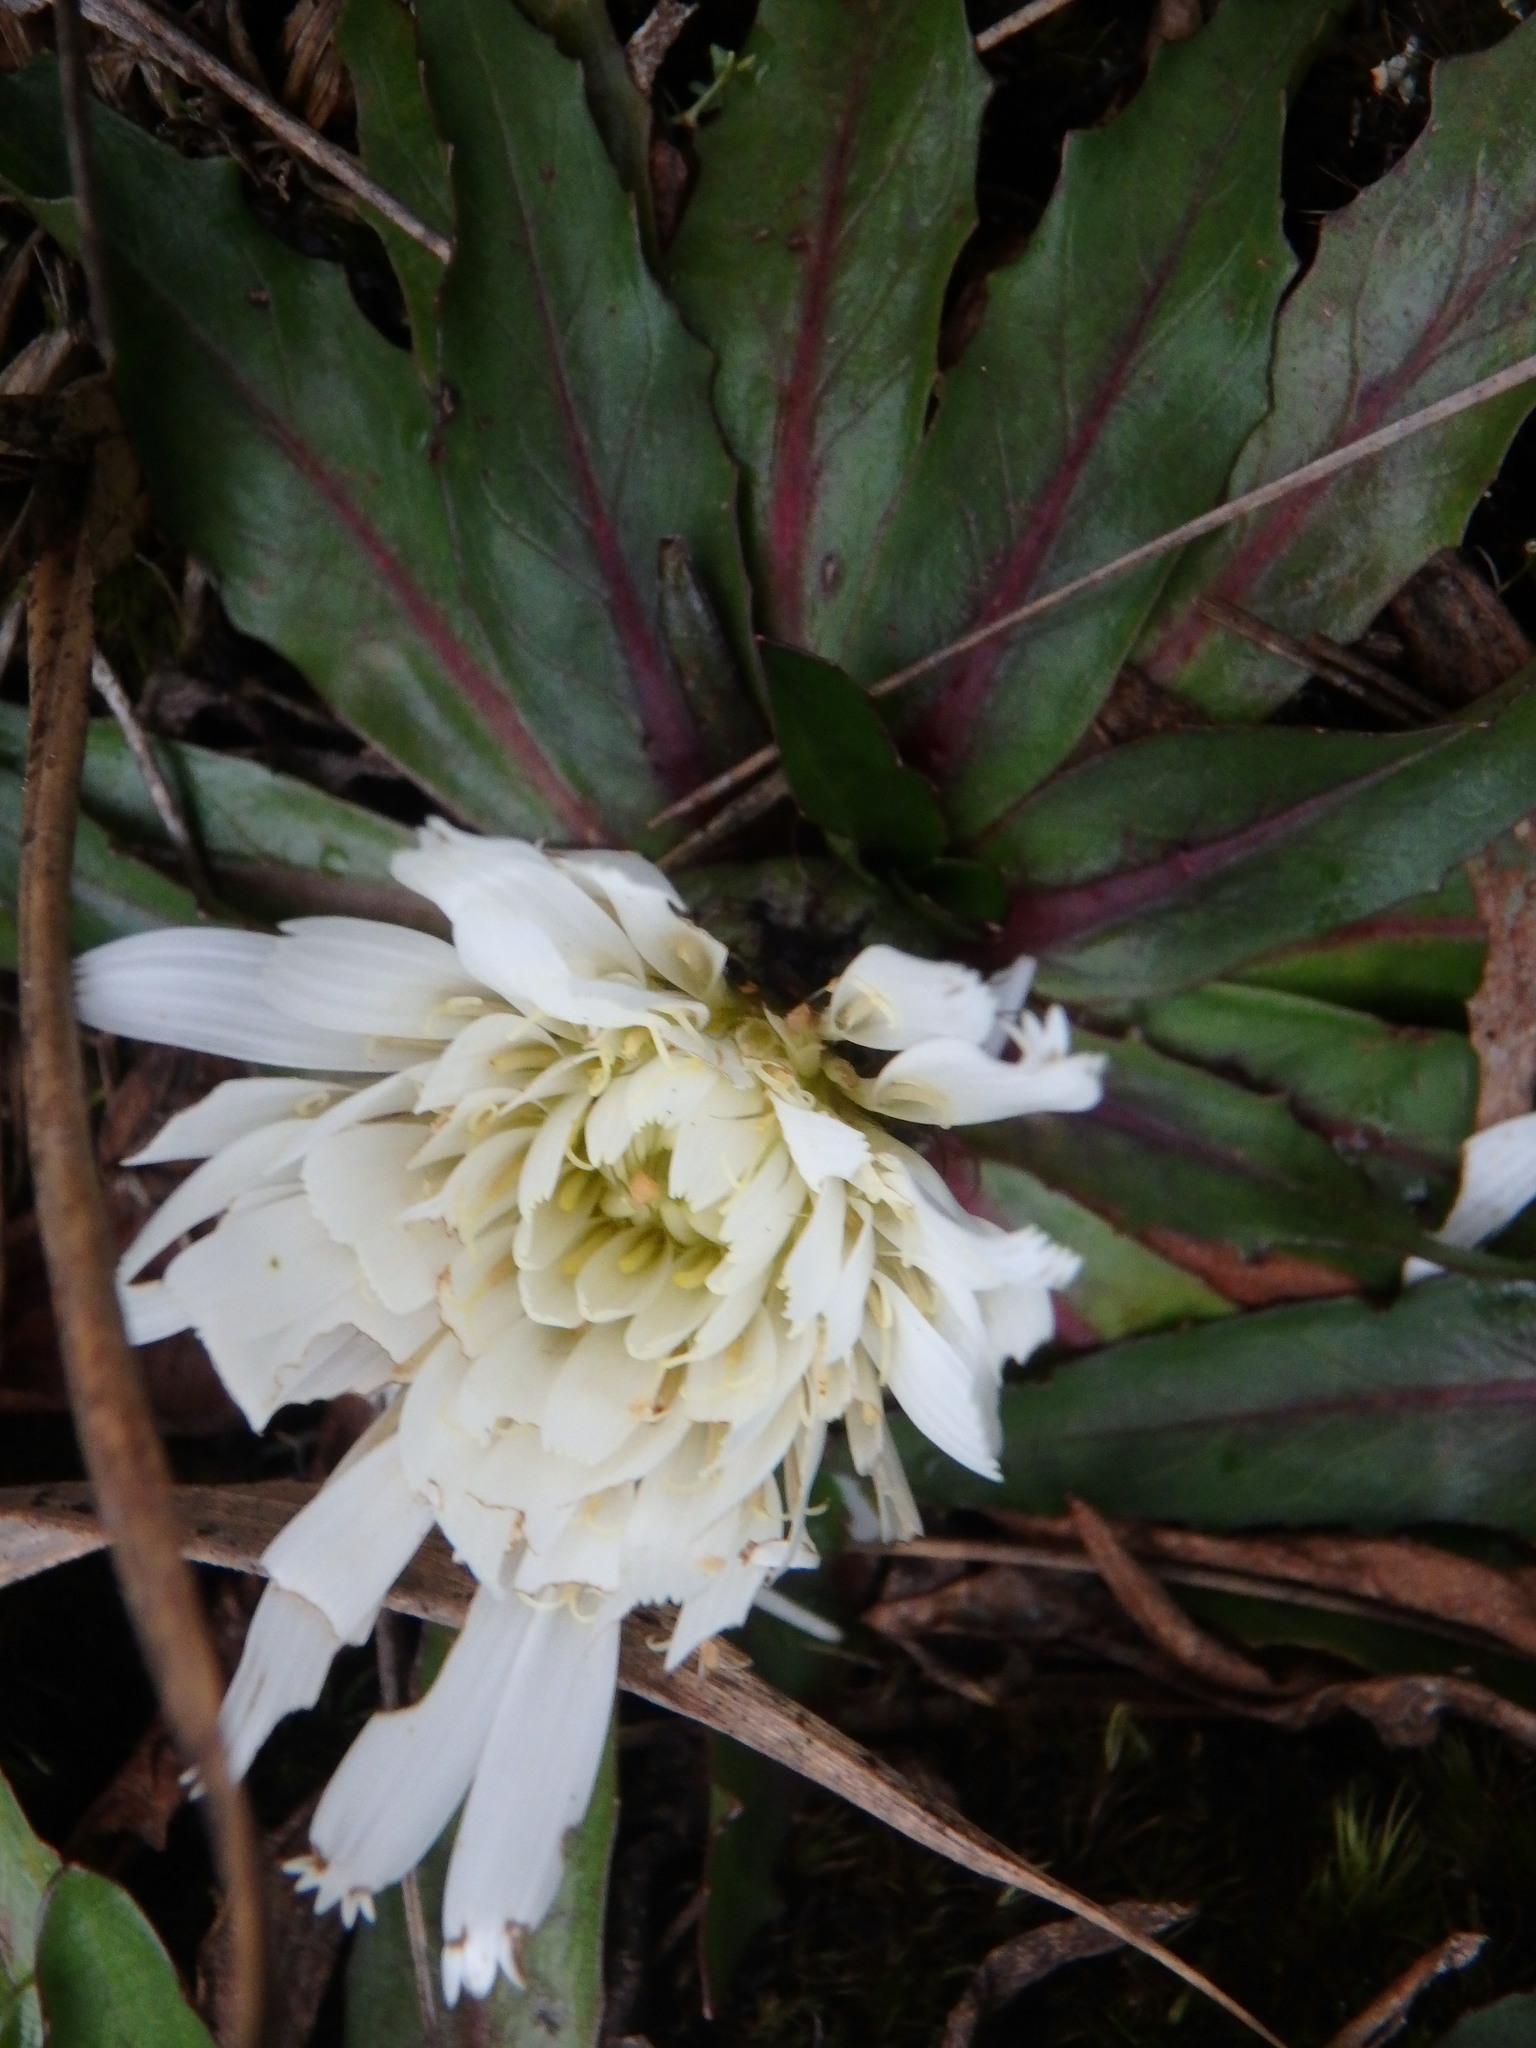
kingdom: Plantae
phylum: Tracheophyta
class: Magnoliopsida
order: Asterales
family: Asteraceae
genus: Hypochaeris
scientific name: Hypochaeris sessiliflora
